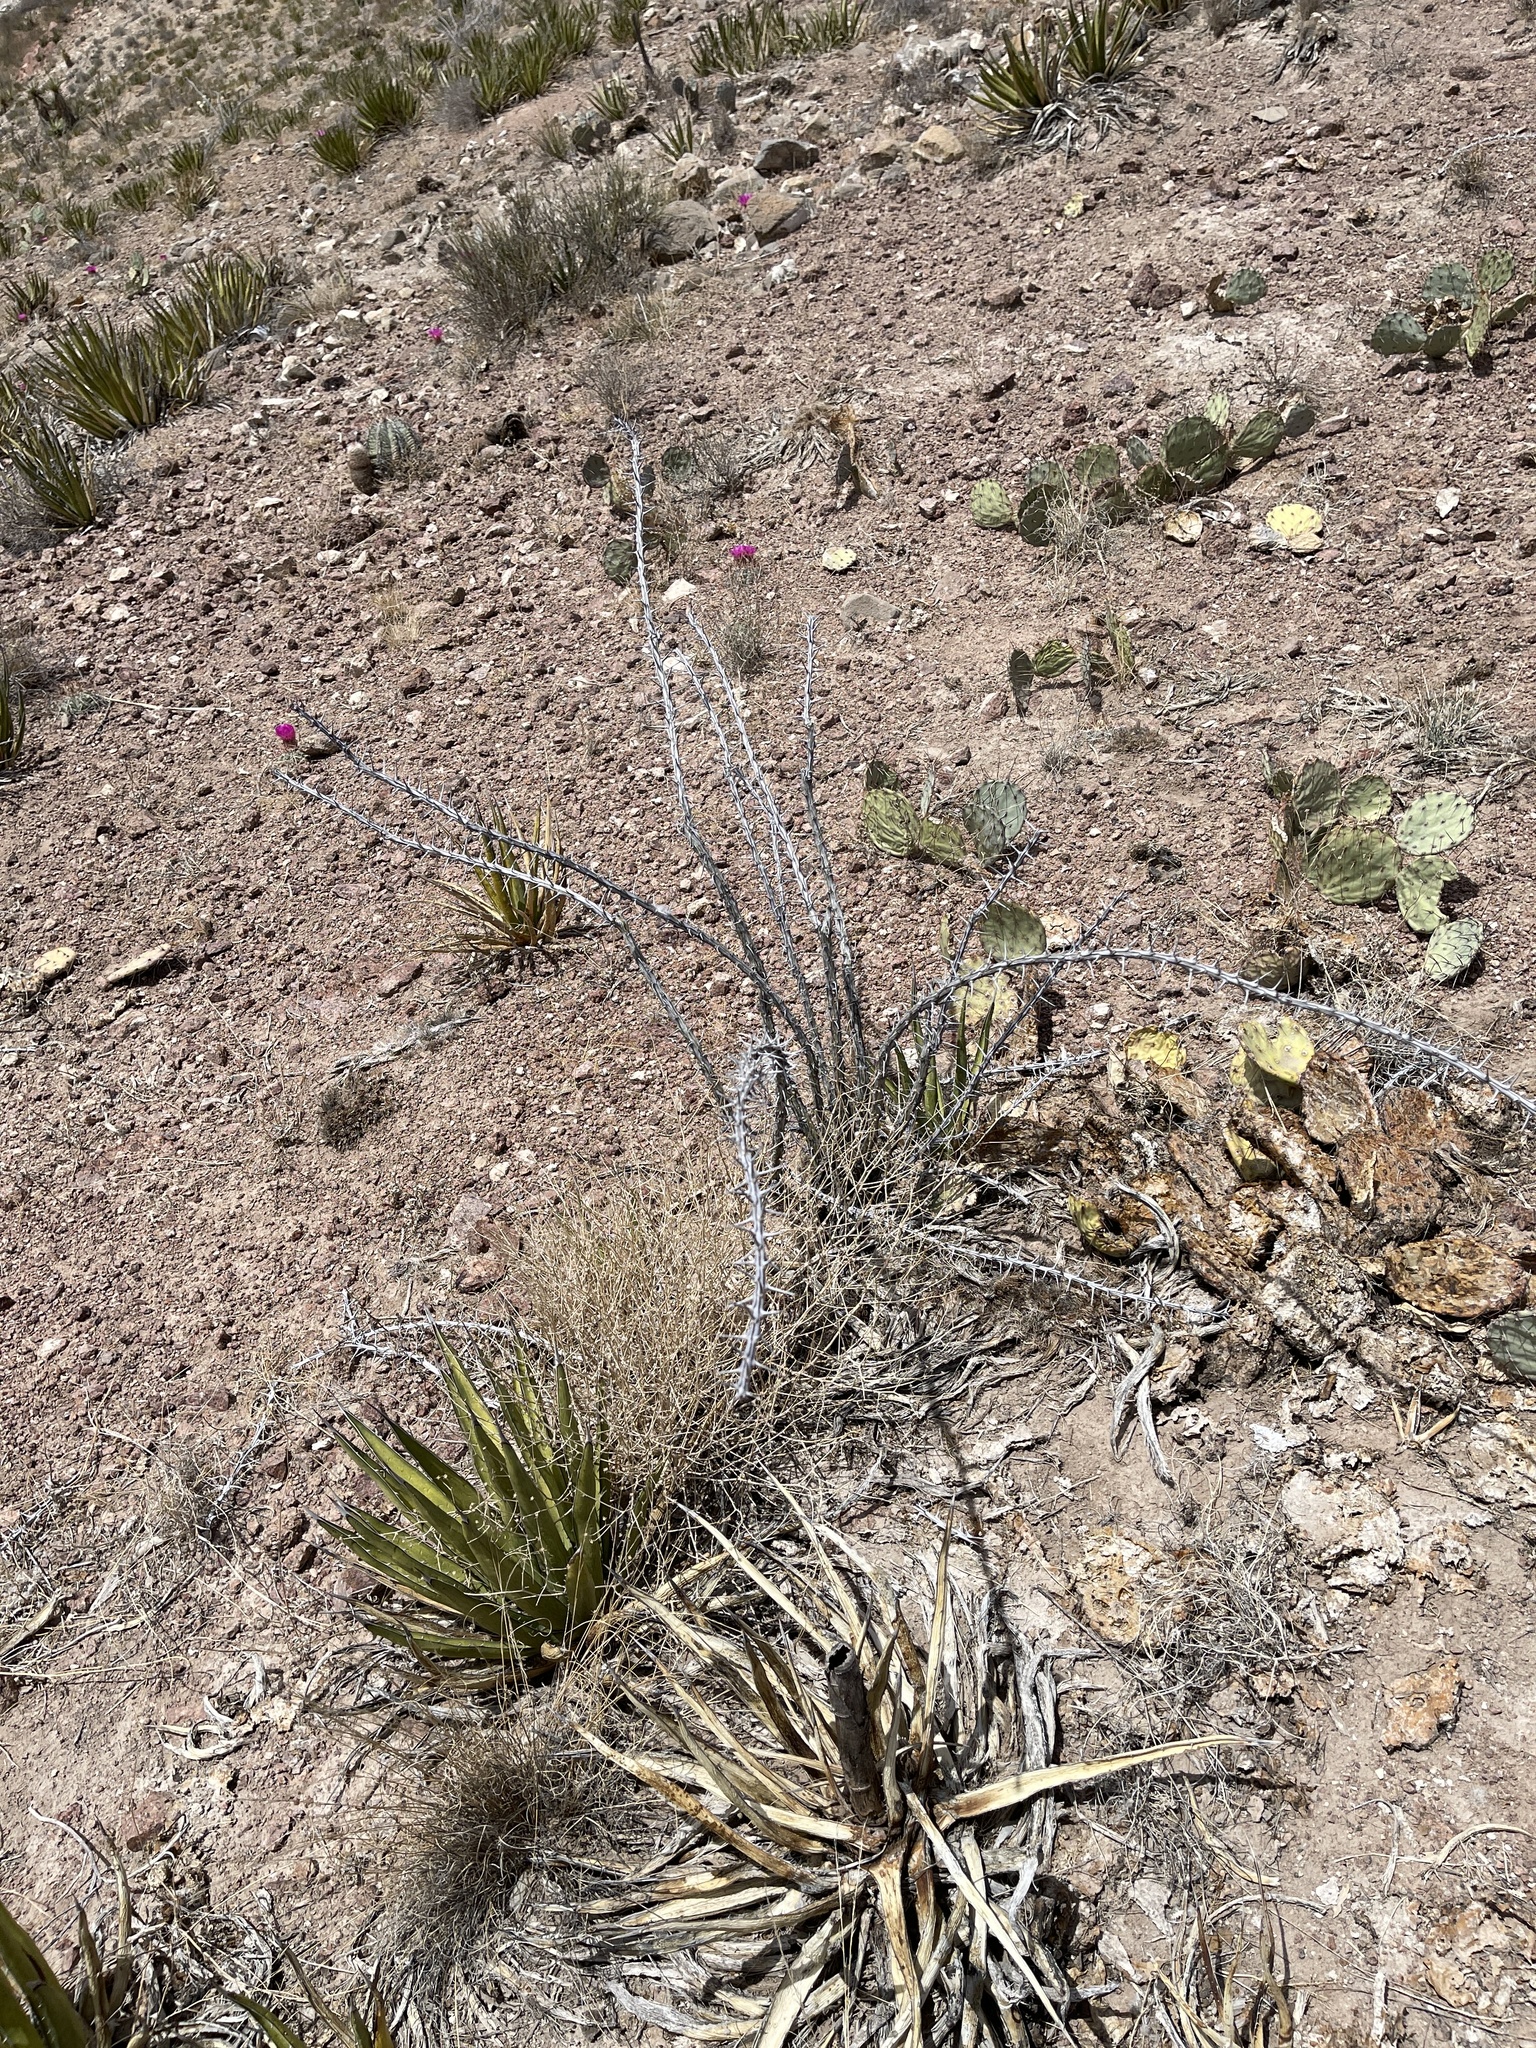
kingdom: Plantae
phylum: Tracheophyta
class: Magnoliopsida
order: Ericales
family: Fouquieriaceae
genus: Fouquieria
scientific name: Fouquieria splendens
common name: Vine-cactus
